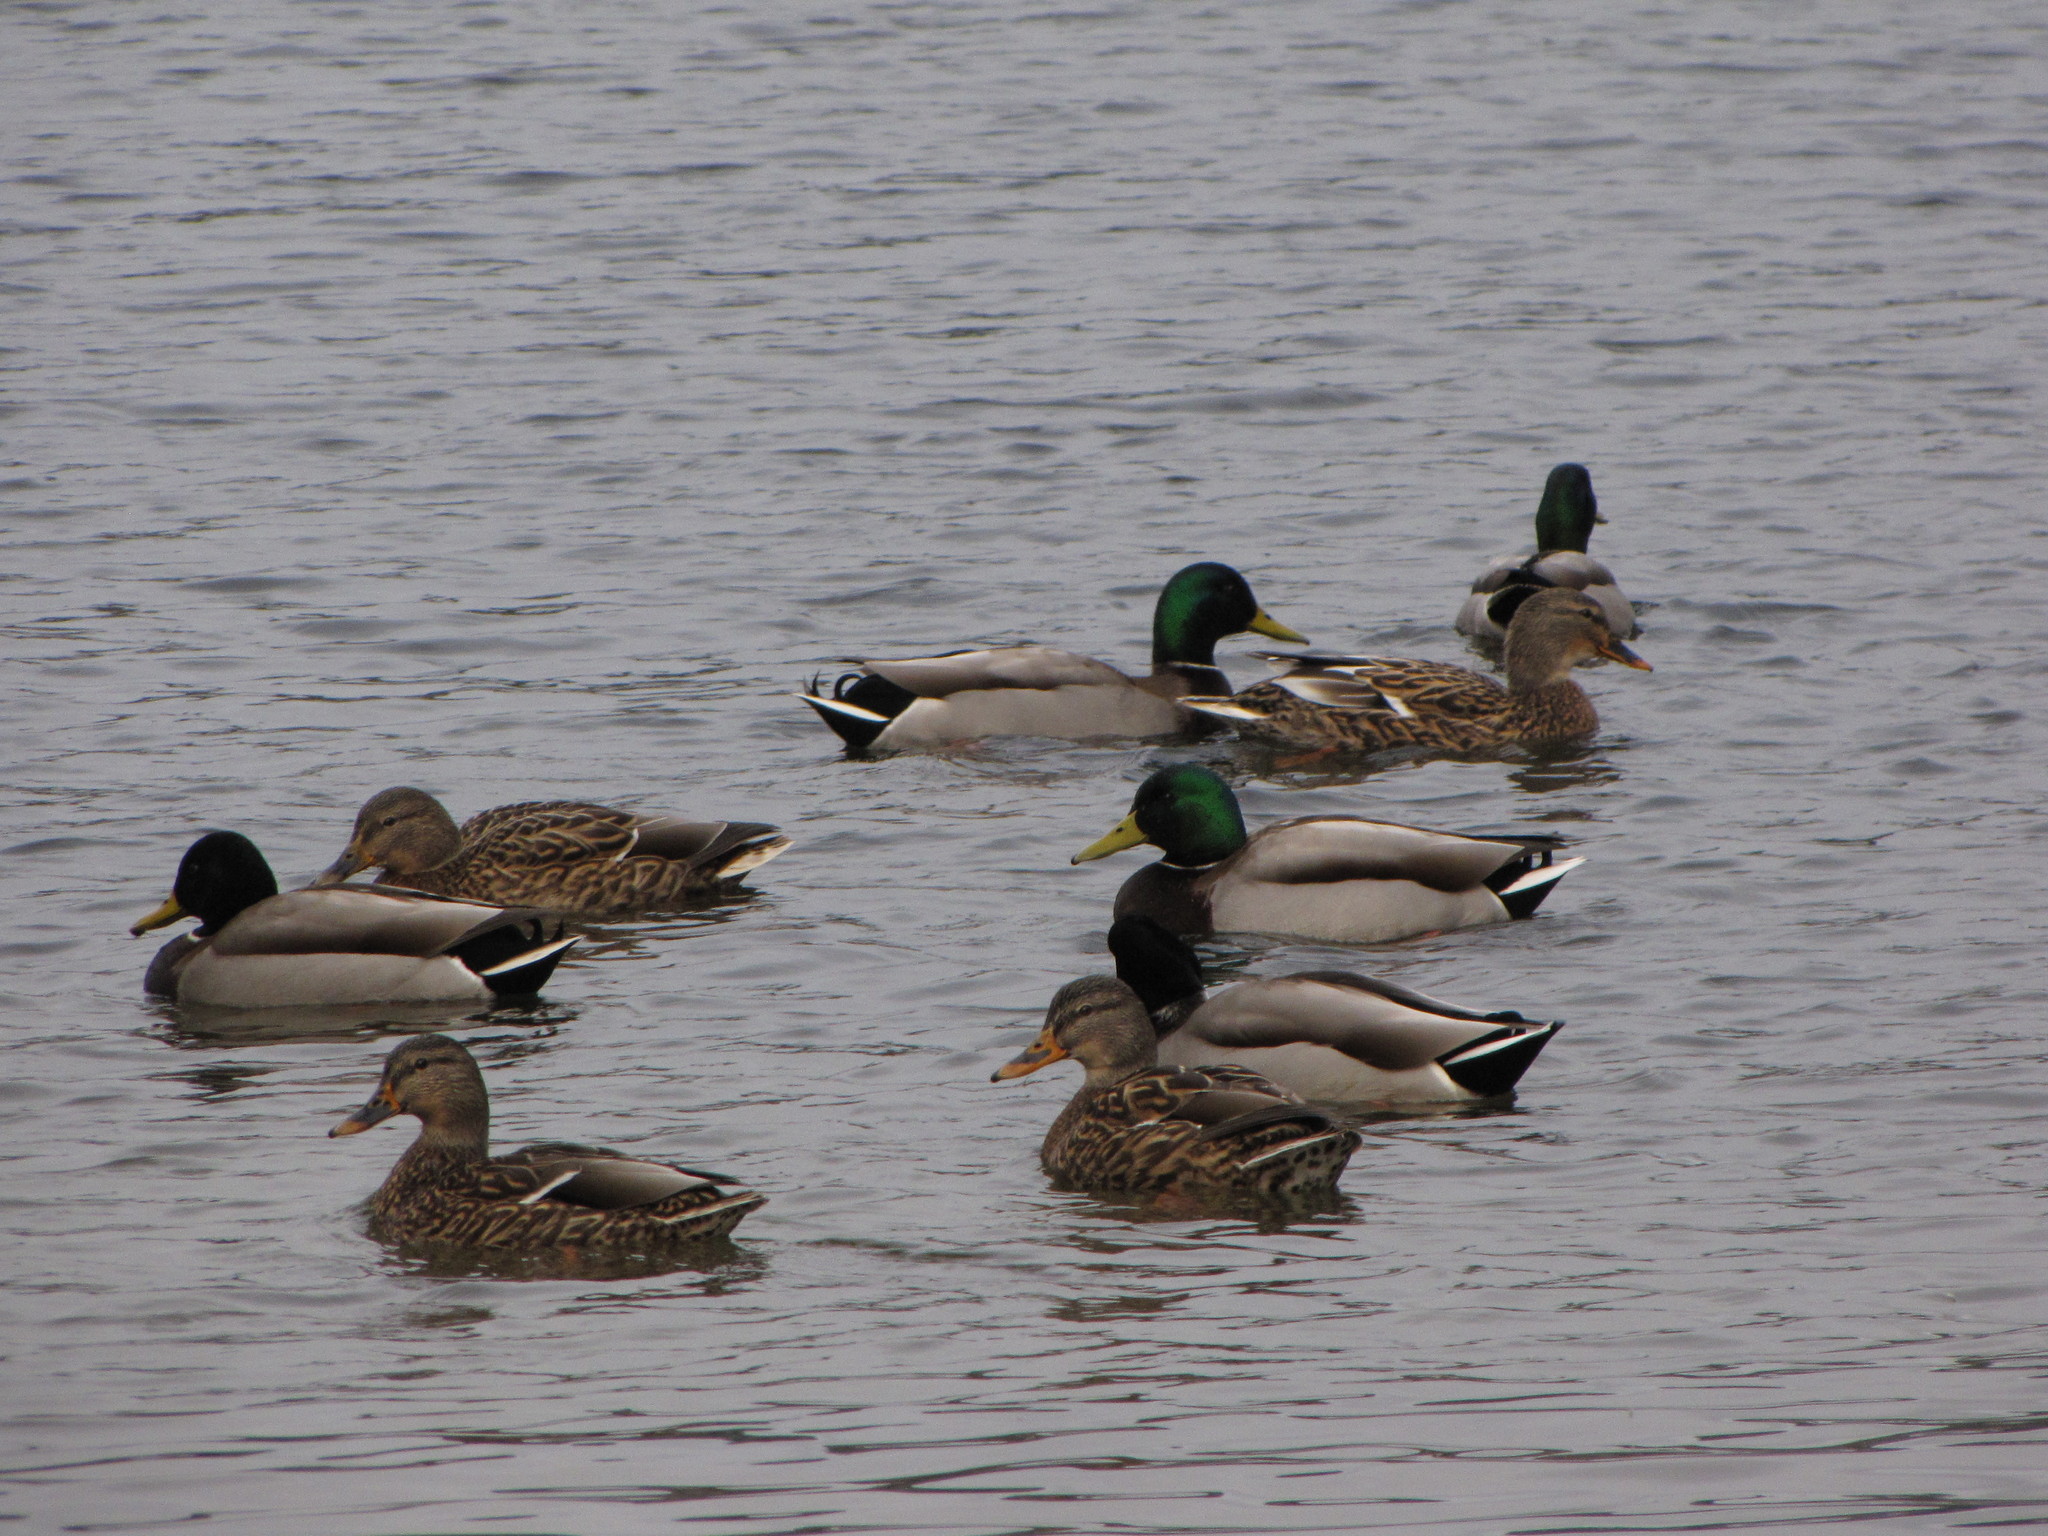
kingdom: Animalia
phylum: Chordata
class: Aves
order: Anseriformes
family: Anatidae
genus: Anas
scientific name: Anas platyrhynchos
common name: Mallard
